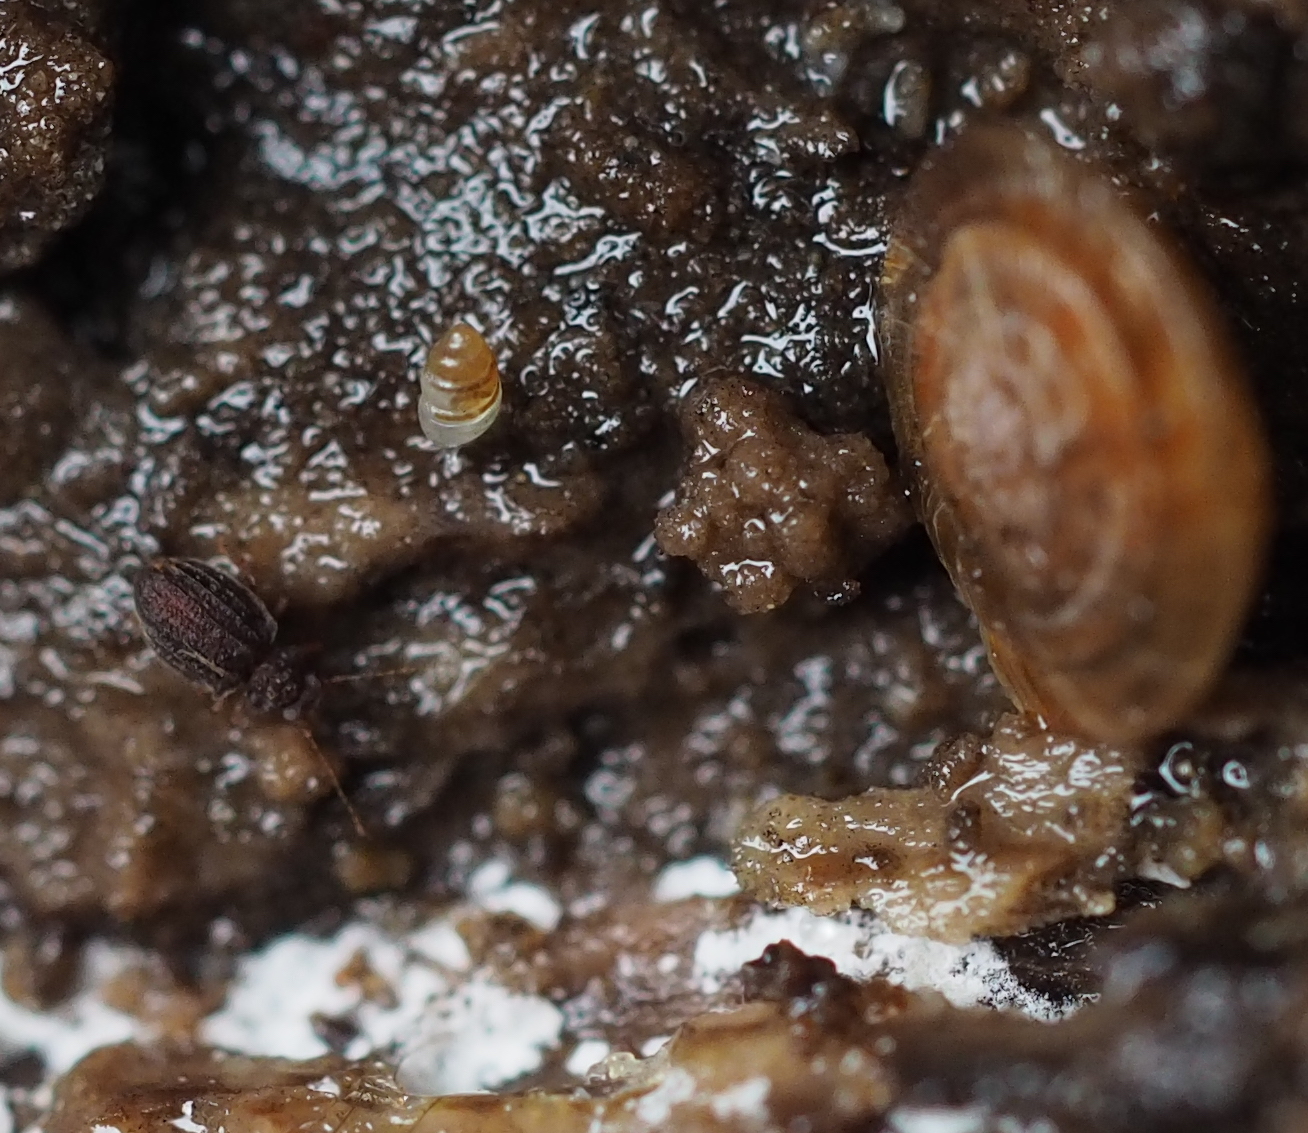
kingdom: Animalia
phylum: Arthropoda
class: Insecta
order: Coleoptera
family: Staphylinidae
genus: Dasycerus
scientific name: Dasycerus sulcatus
